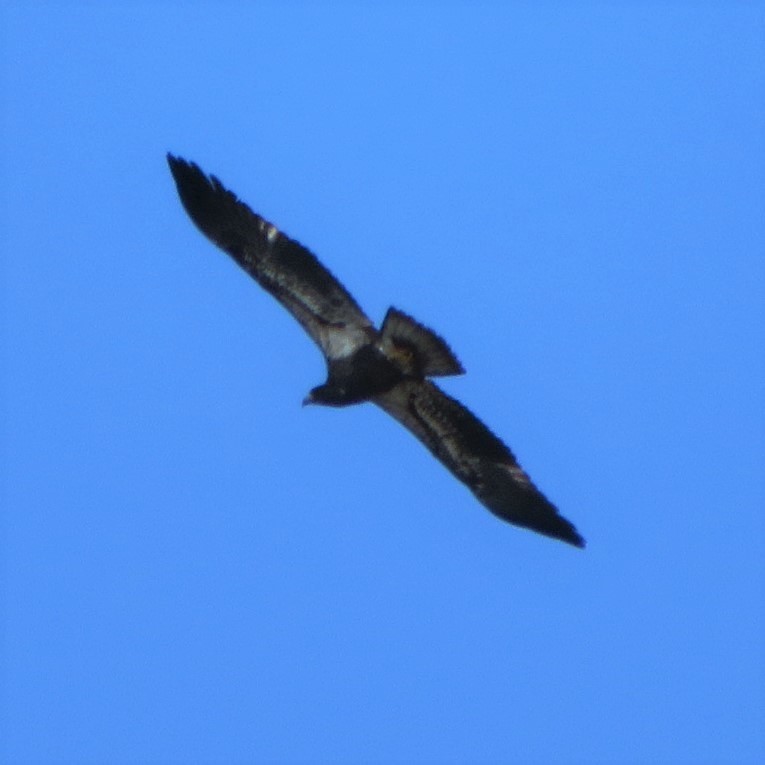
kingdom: Animalia
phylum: Chordata
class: Aves
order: Accipitriformes
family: Accipitridae
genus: Haliaeetus
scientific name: Haliaeetus leucocephalus
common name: Bald eagle
